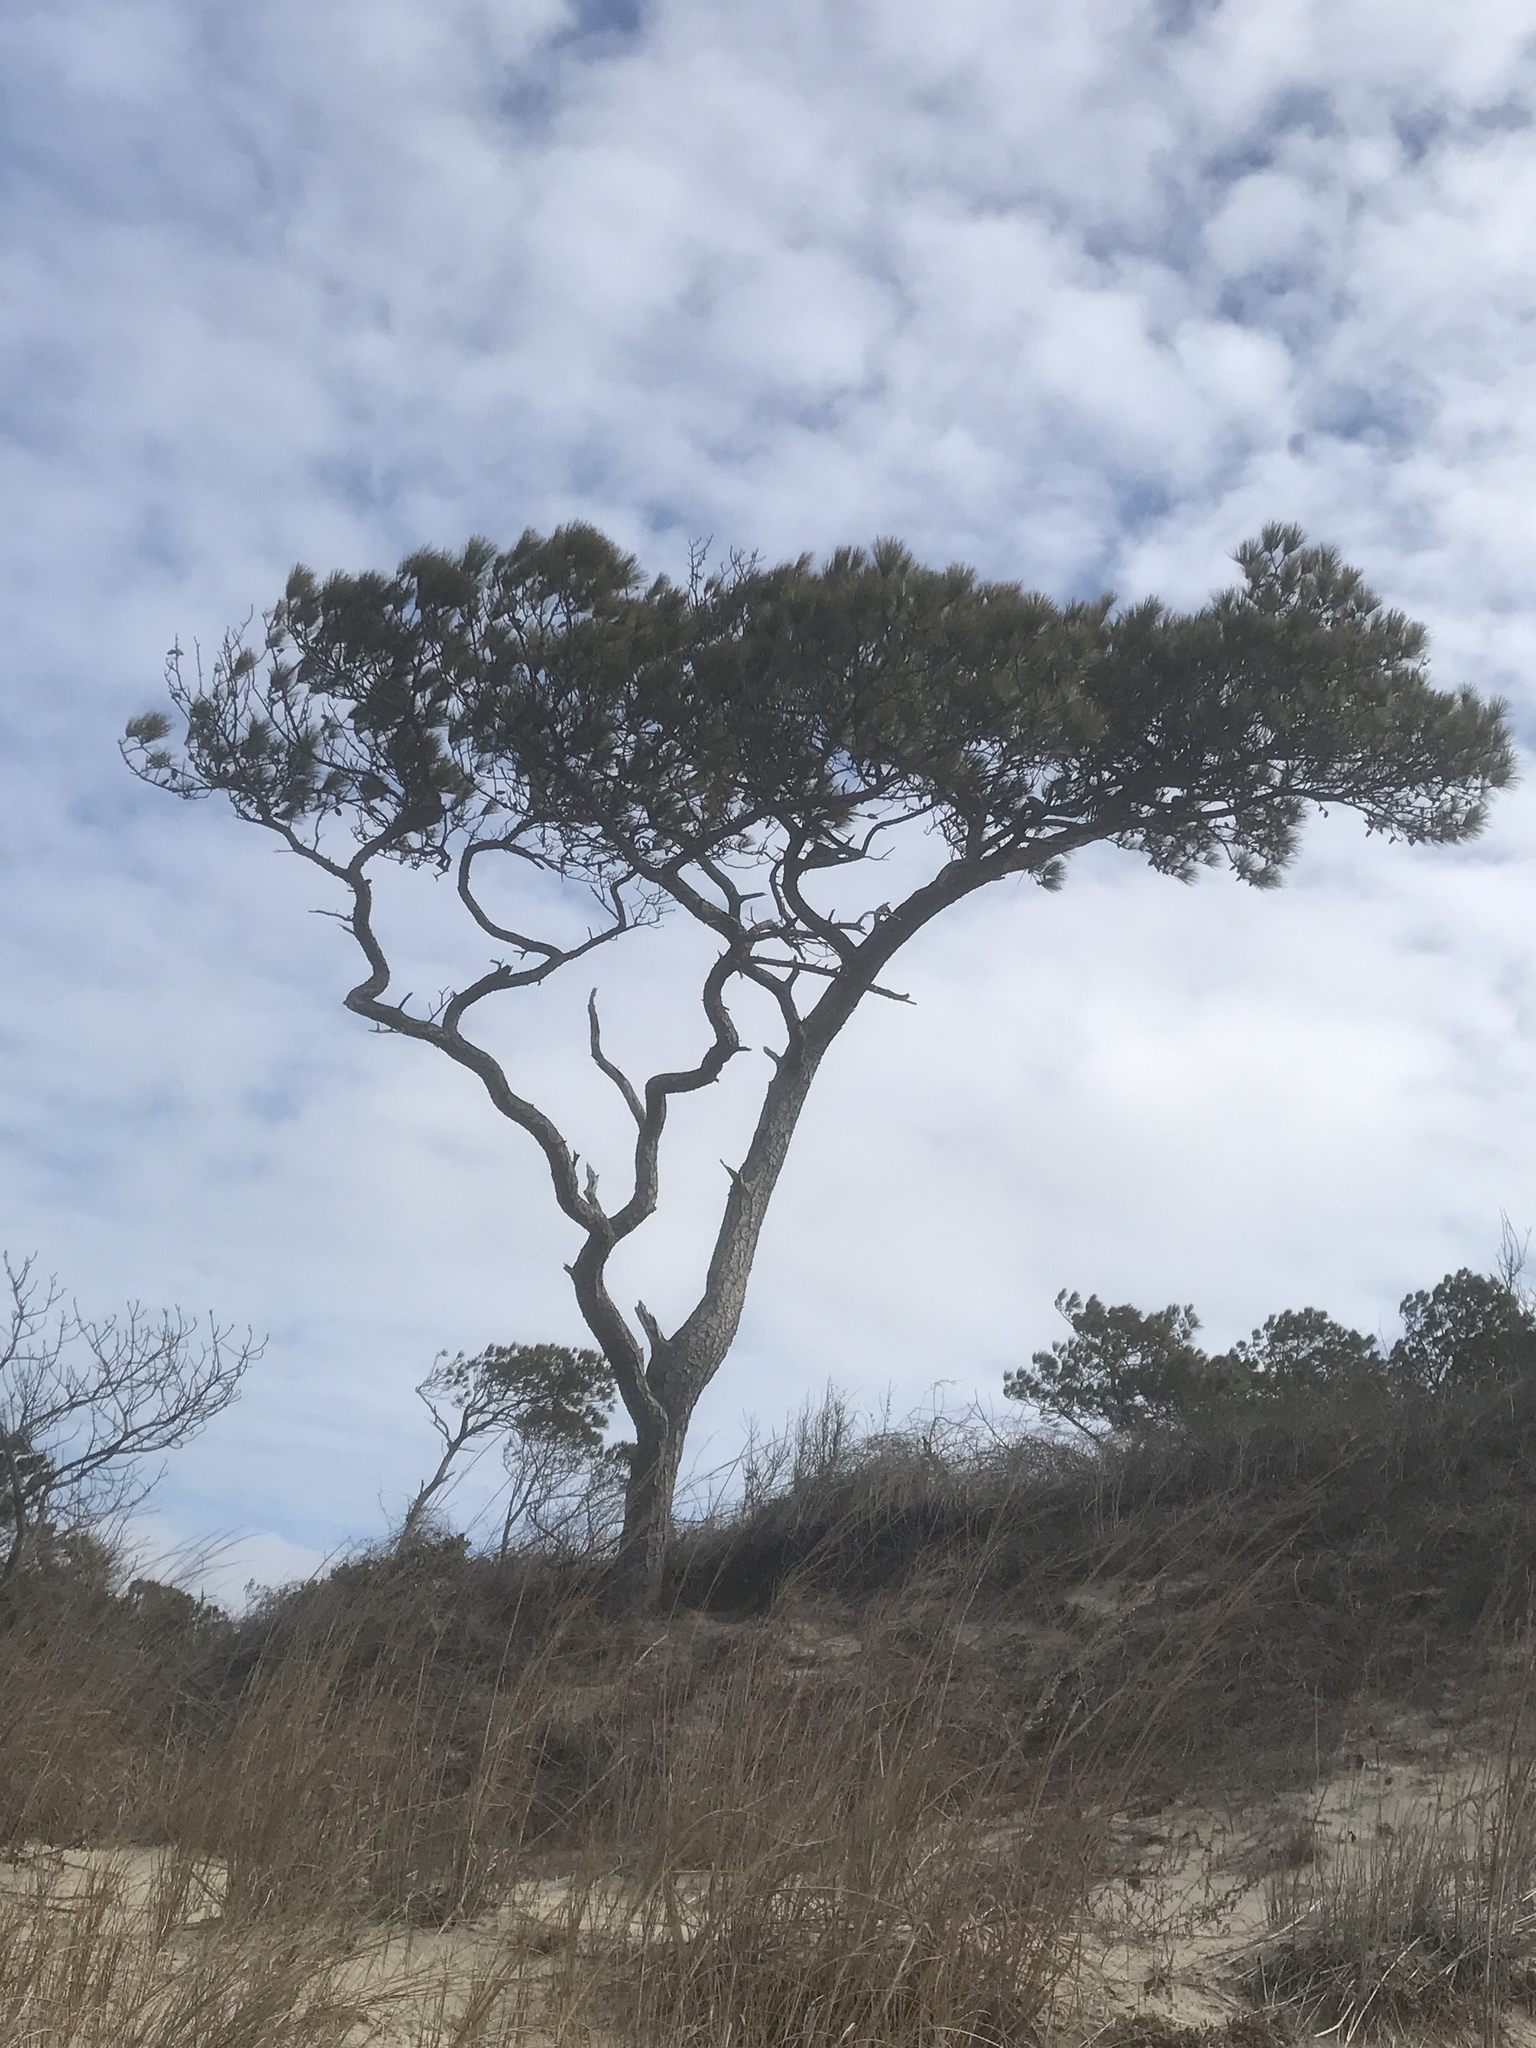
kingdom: Plantae
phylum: Tracheophyta
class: Pinopsida
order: Pinales
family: Pinaceae
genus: Pinus
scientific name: Pinus taeda
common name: Loblolly pine
